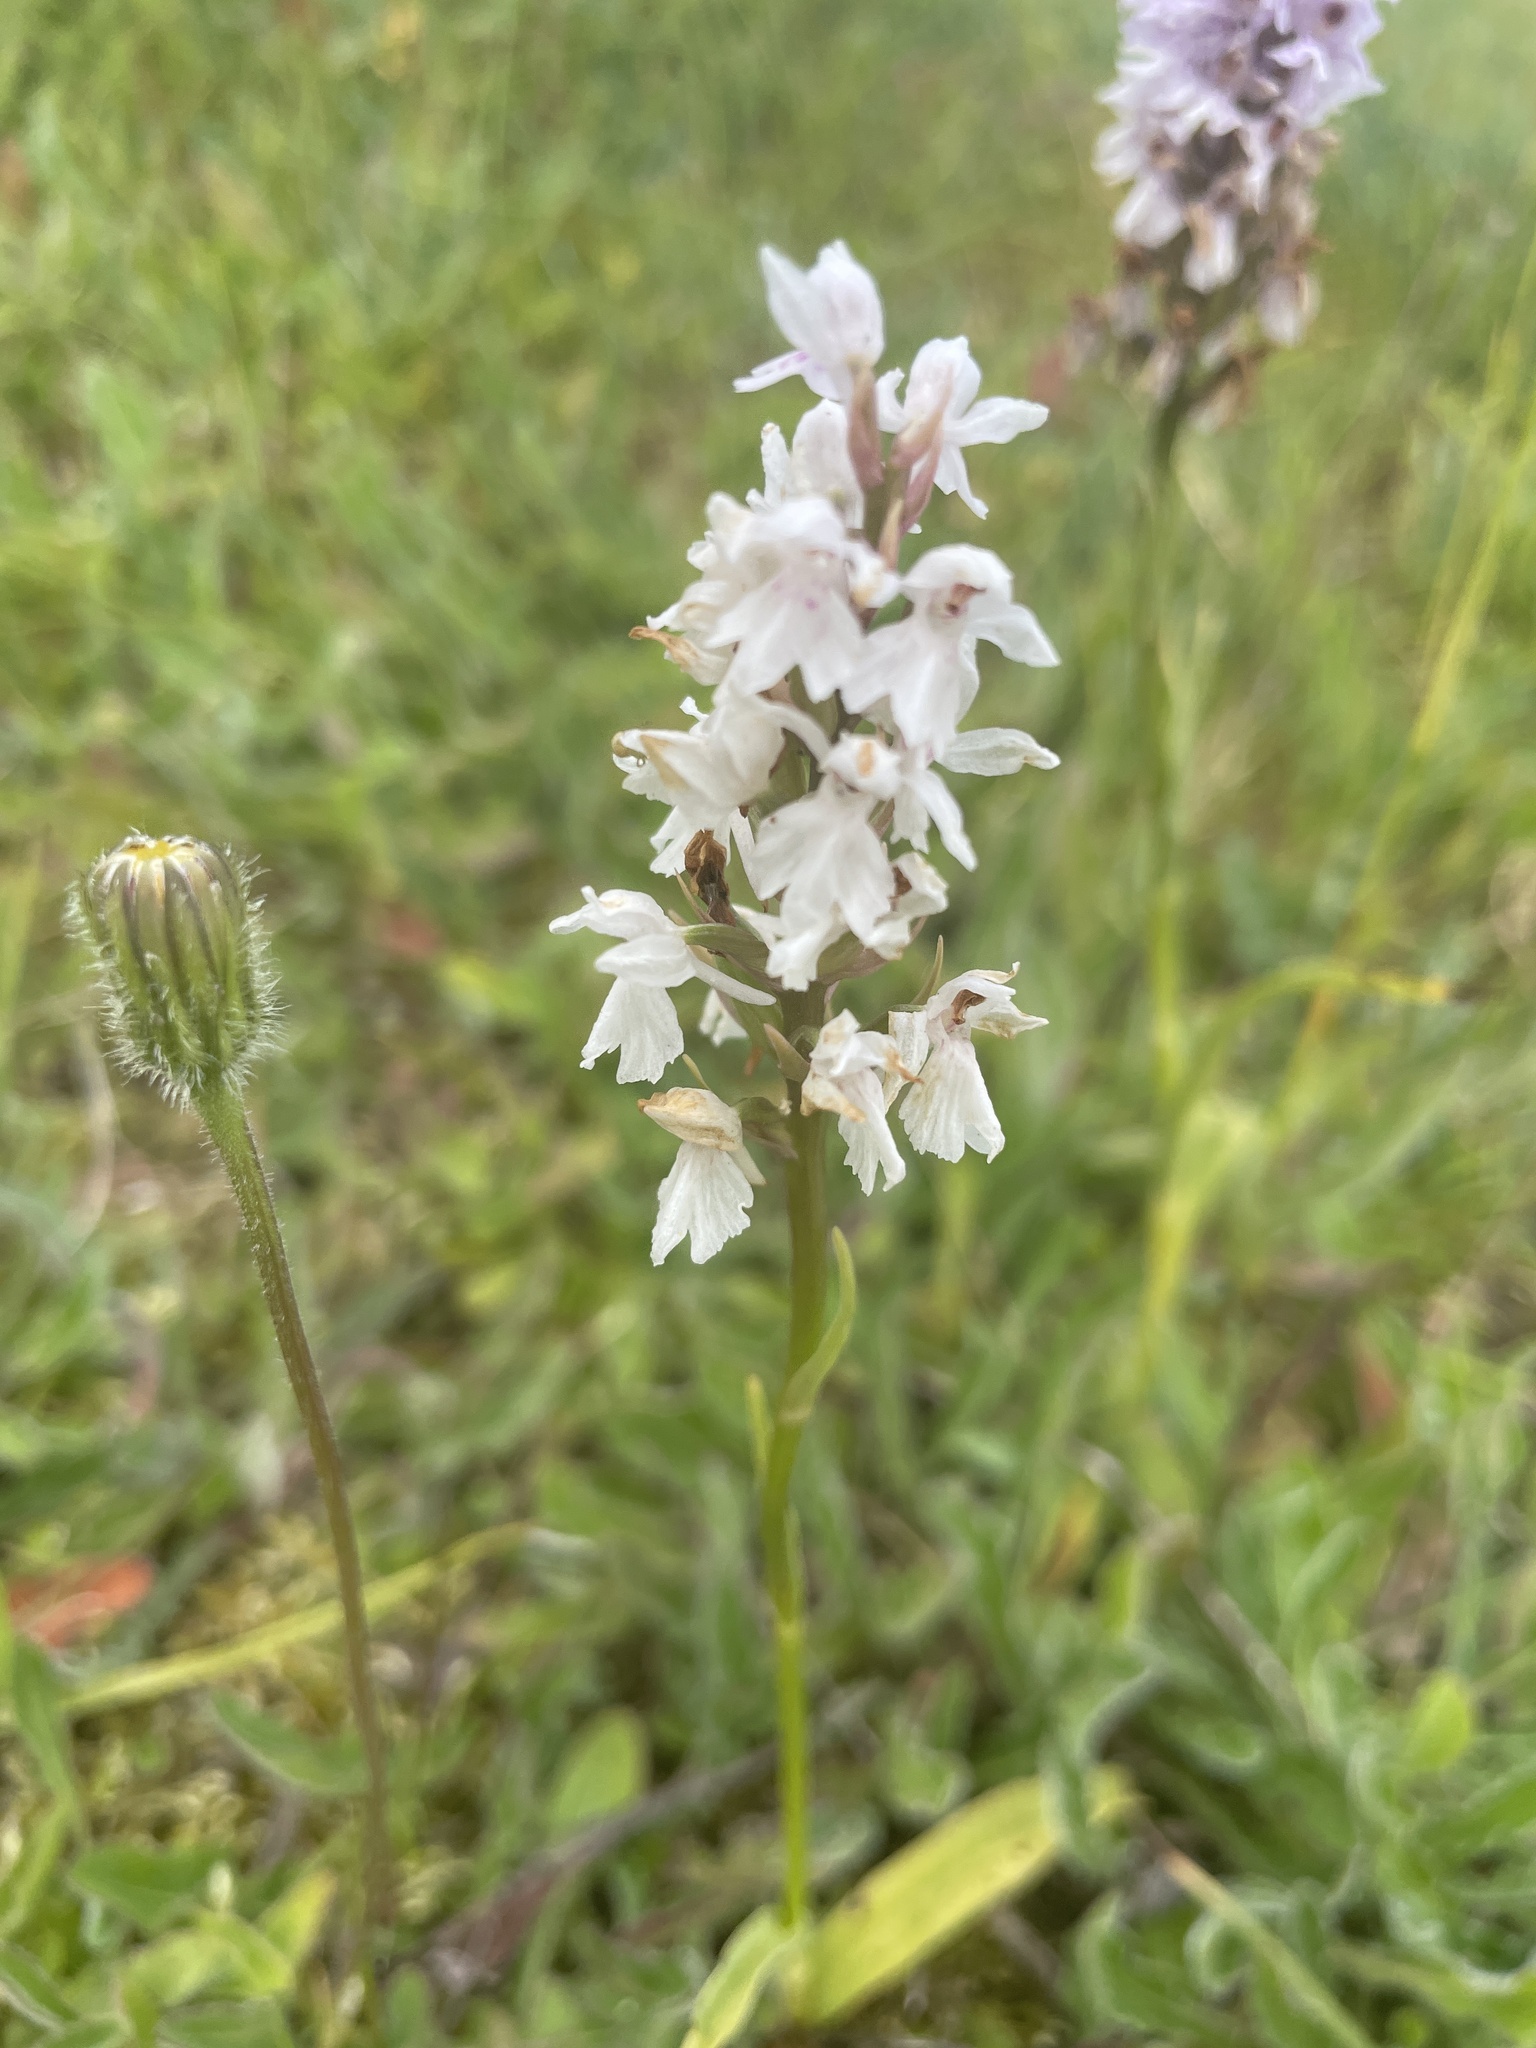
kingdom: Plantae
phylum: Tracheophyta
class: Liliopsida
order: Asparagales
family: Orchidaceae
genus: Dactylorhiza
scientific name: Dactylorhiza maculata
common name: Heath spotted-orchid
